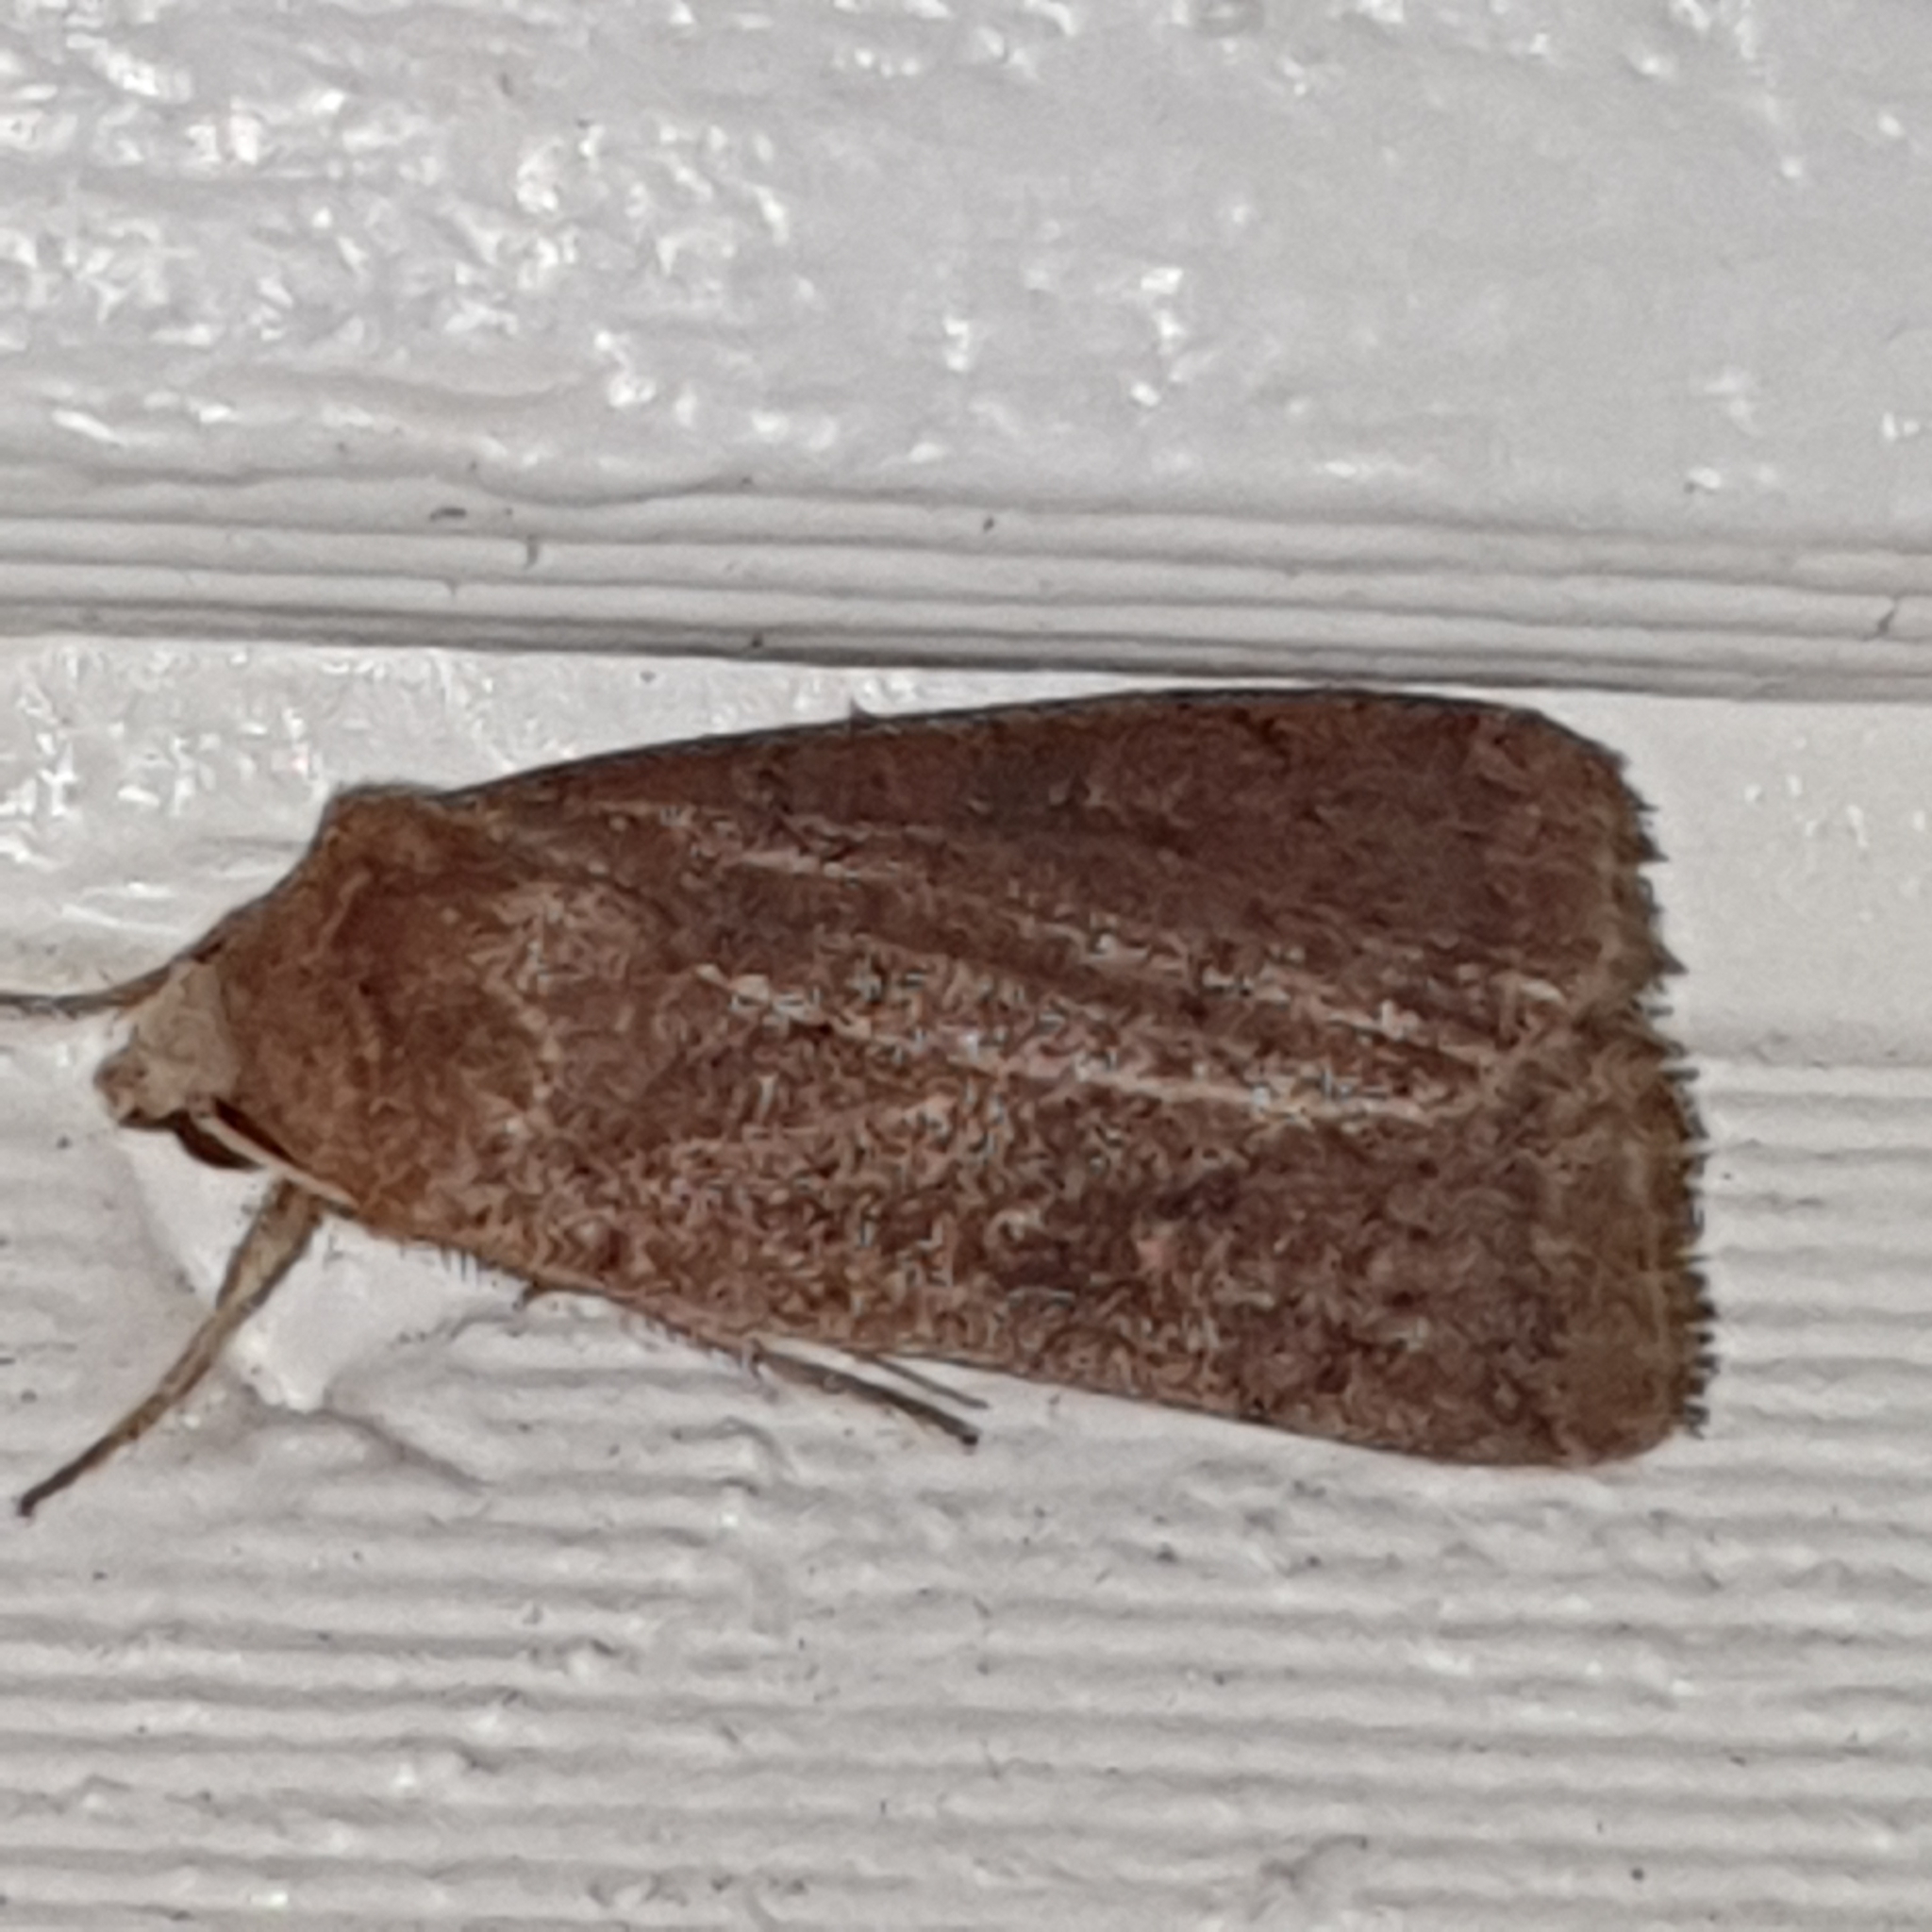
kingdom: Animalia
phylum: Arthropoda
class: Insecta
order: Lepidoptera
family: Noctuidae
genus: Xestia
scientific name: Xestia xanthographa
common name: Square-spot rustic
